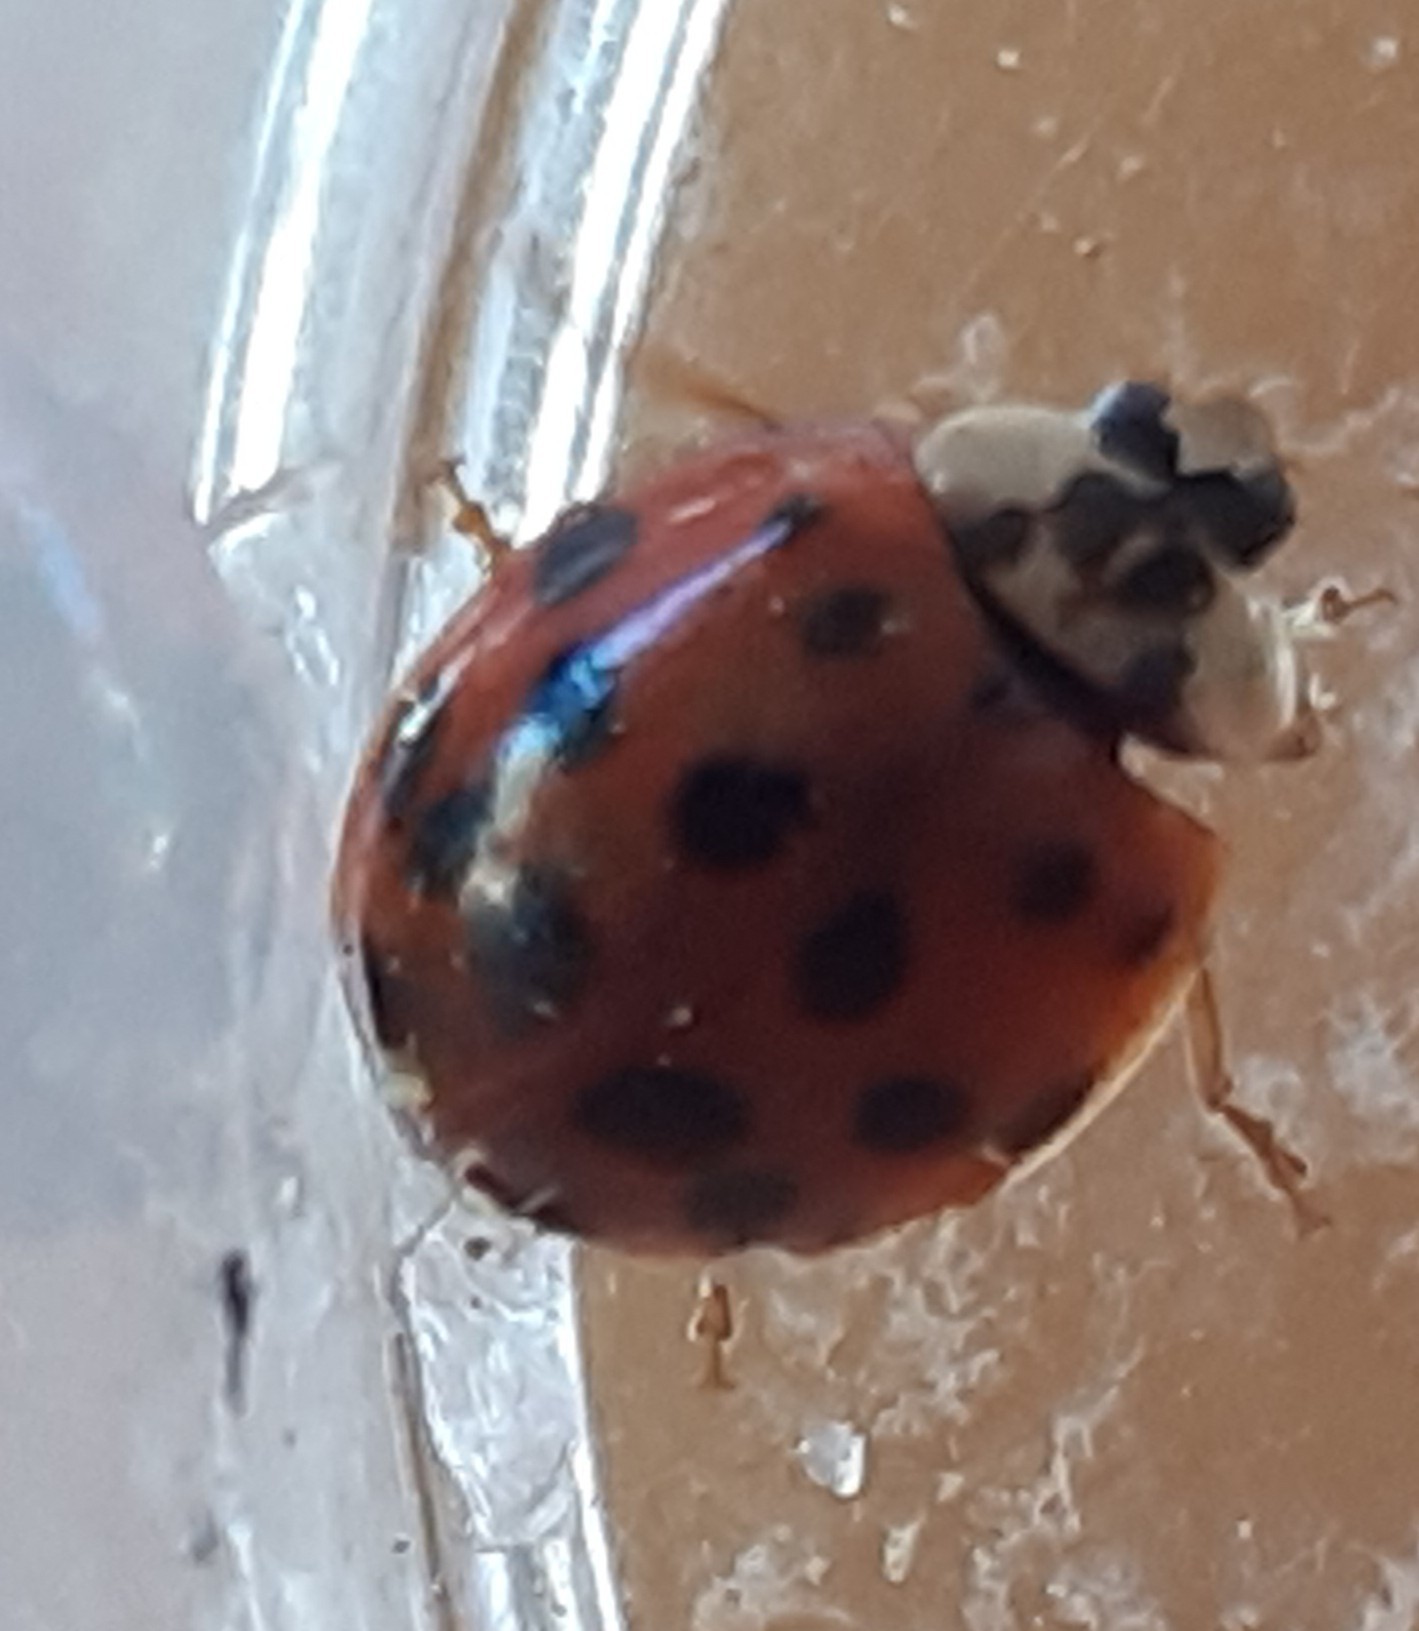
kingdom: Animalia
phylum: Arthropoda
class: Insecta
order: Coleoptera
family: Coccinellidae
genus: Harmonia
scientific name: Harmonia axyridis
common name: Harlequin ladybird
